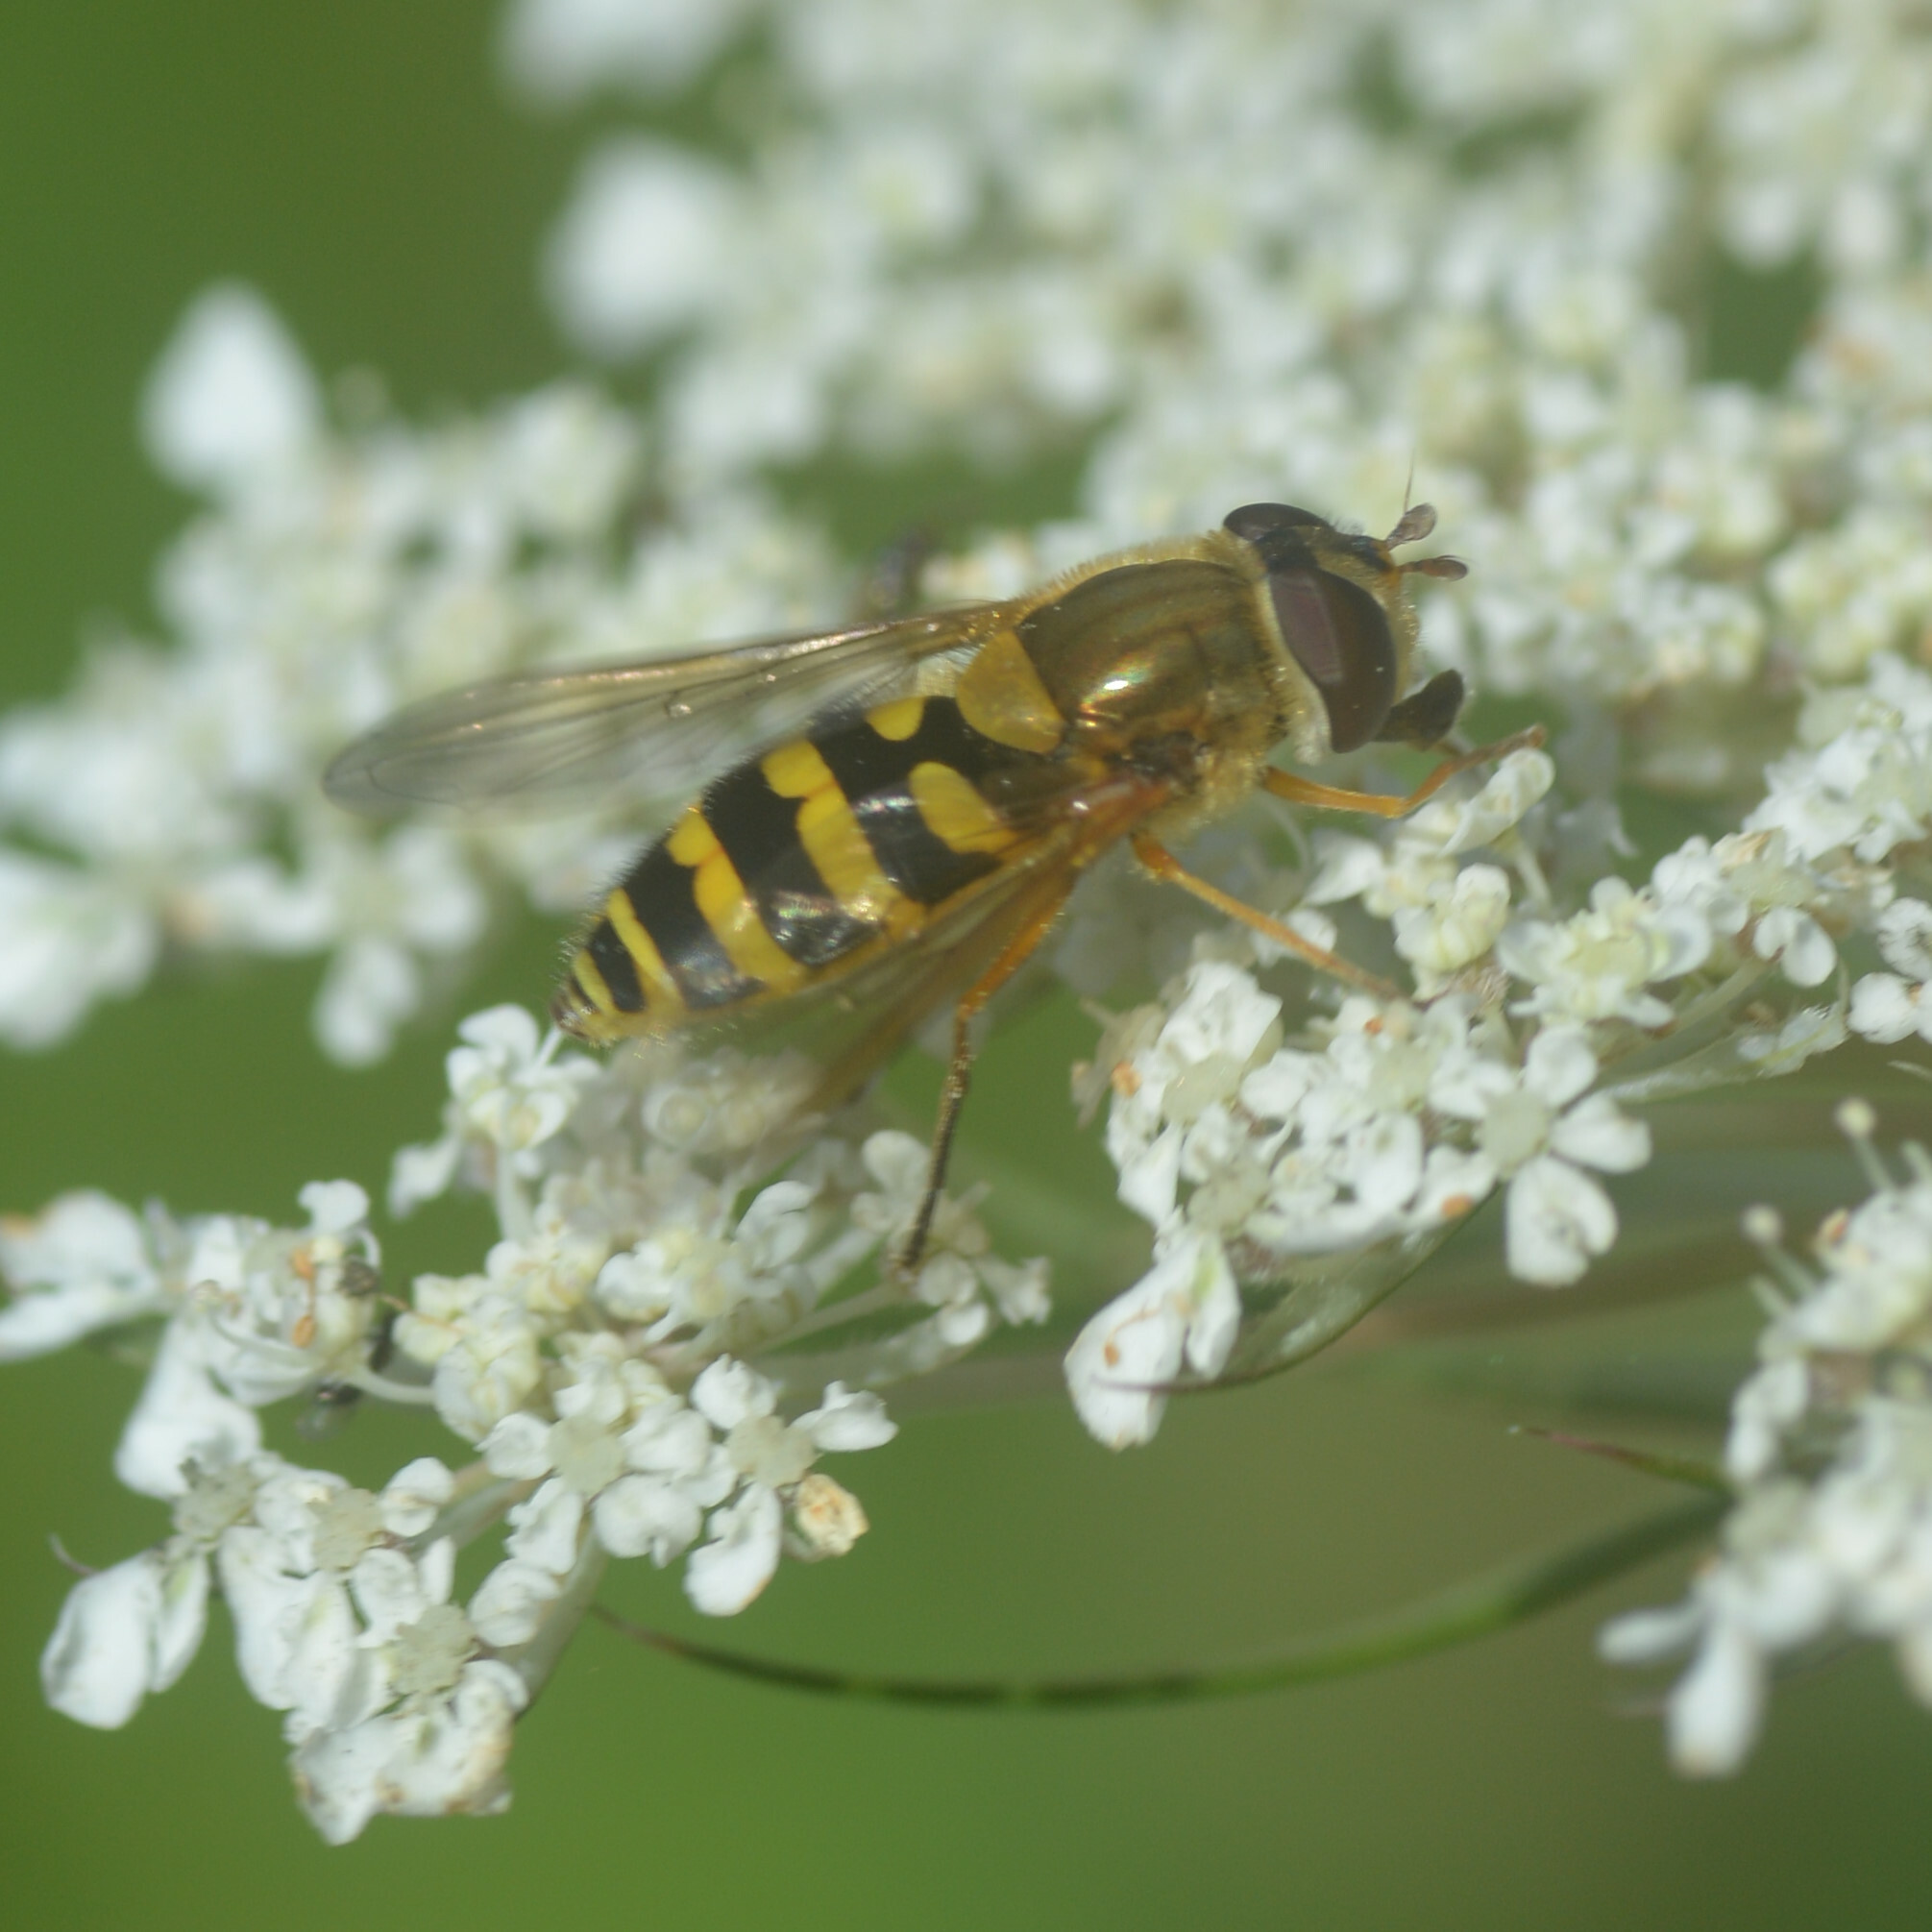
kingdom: Animalia
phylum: Arthropoda
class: Insecta
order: Diptera
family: Syrphidae
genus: Syrphus
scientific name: Syrphus ribesii
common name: Common flower fly
